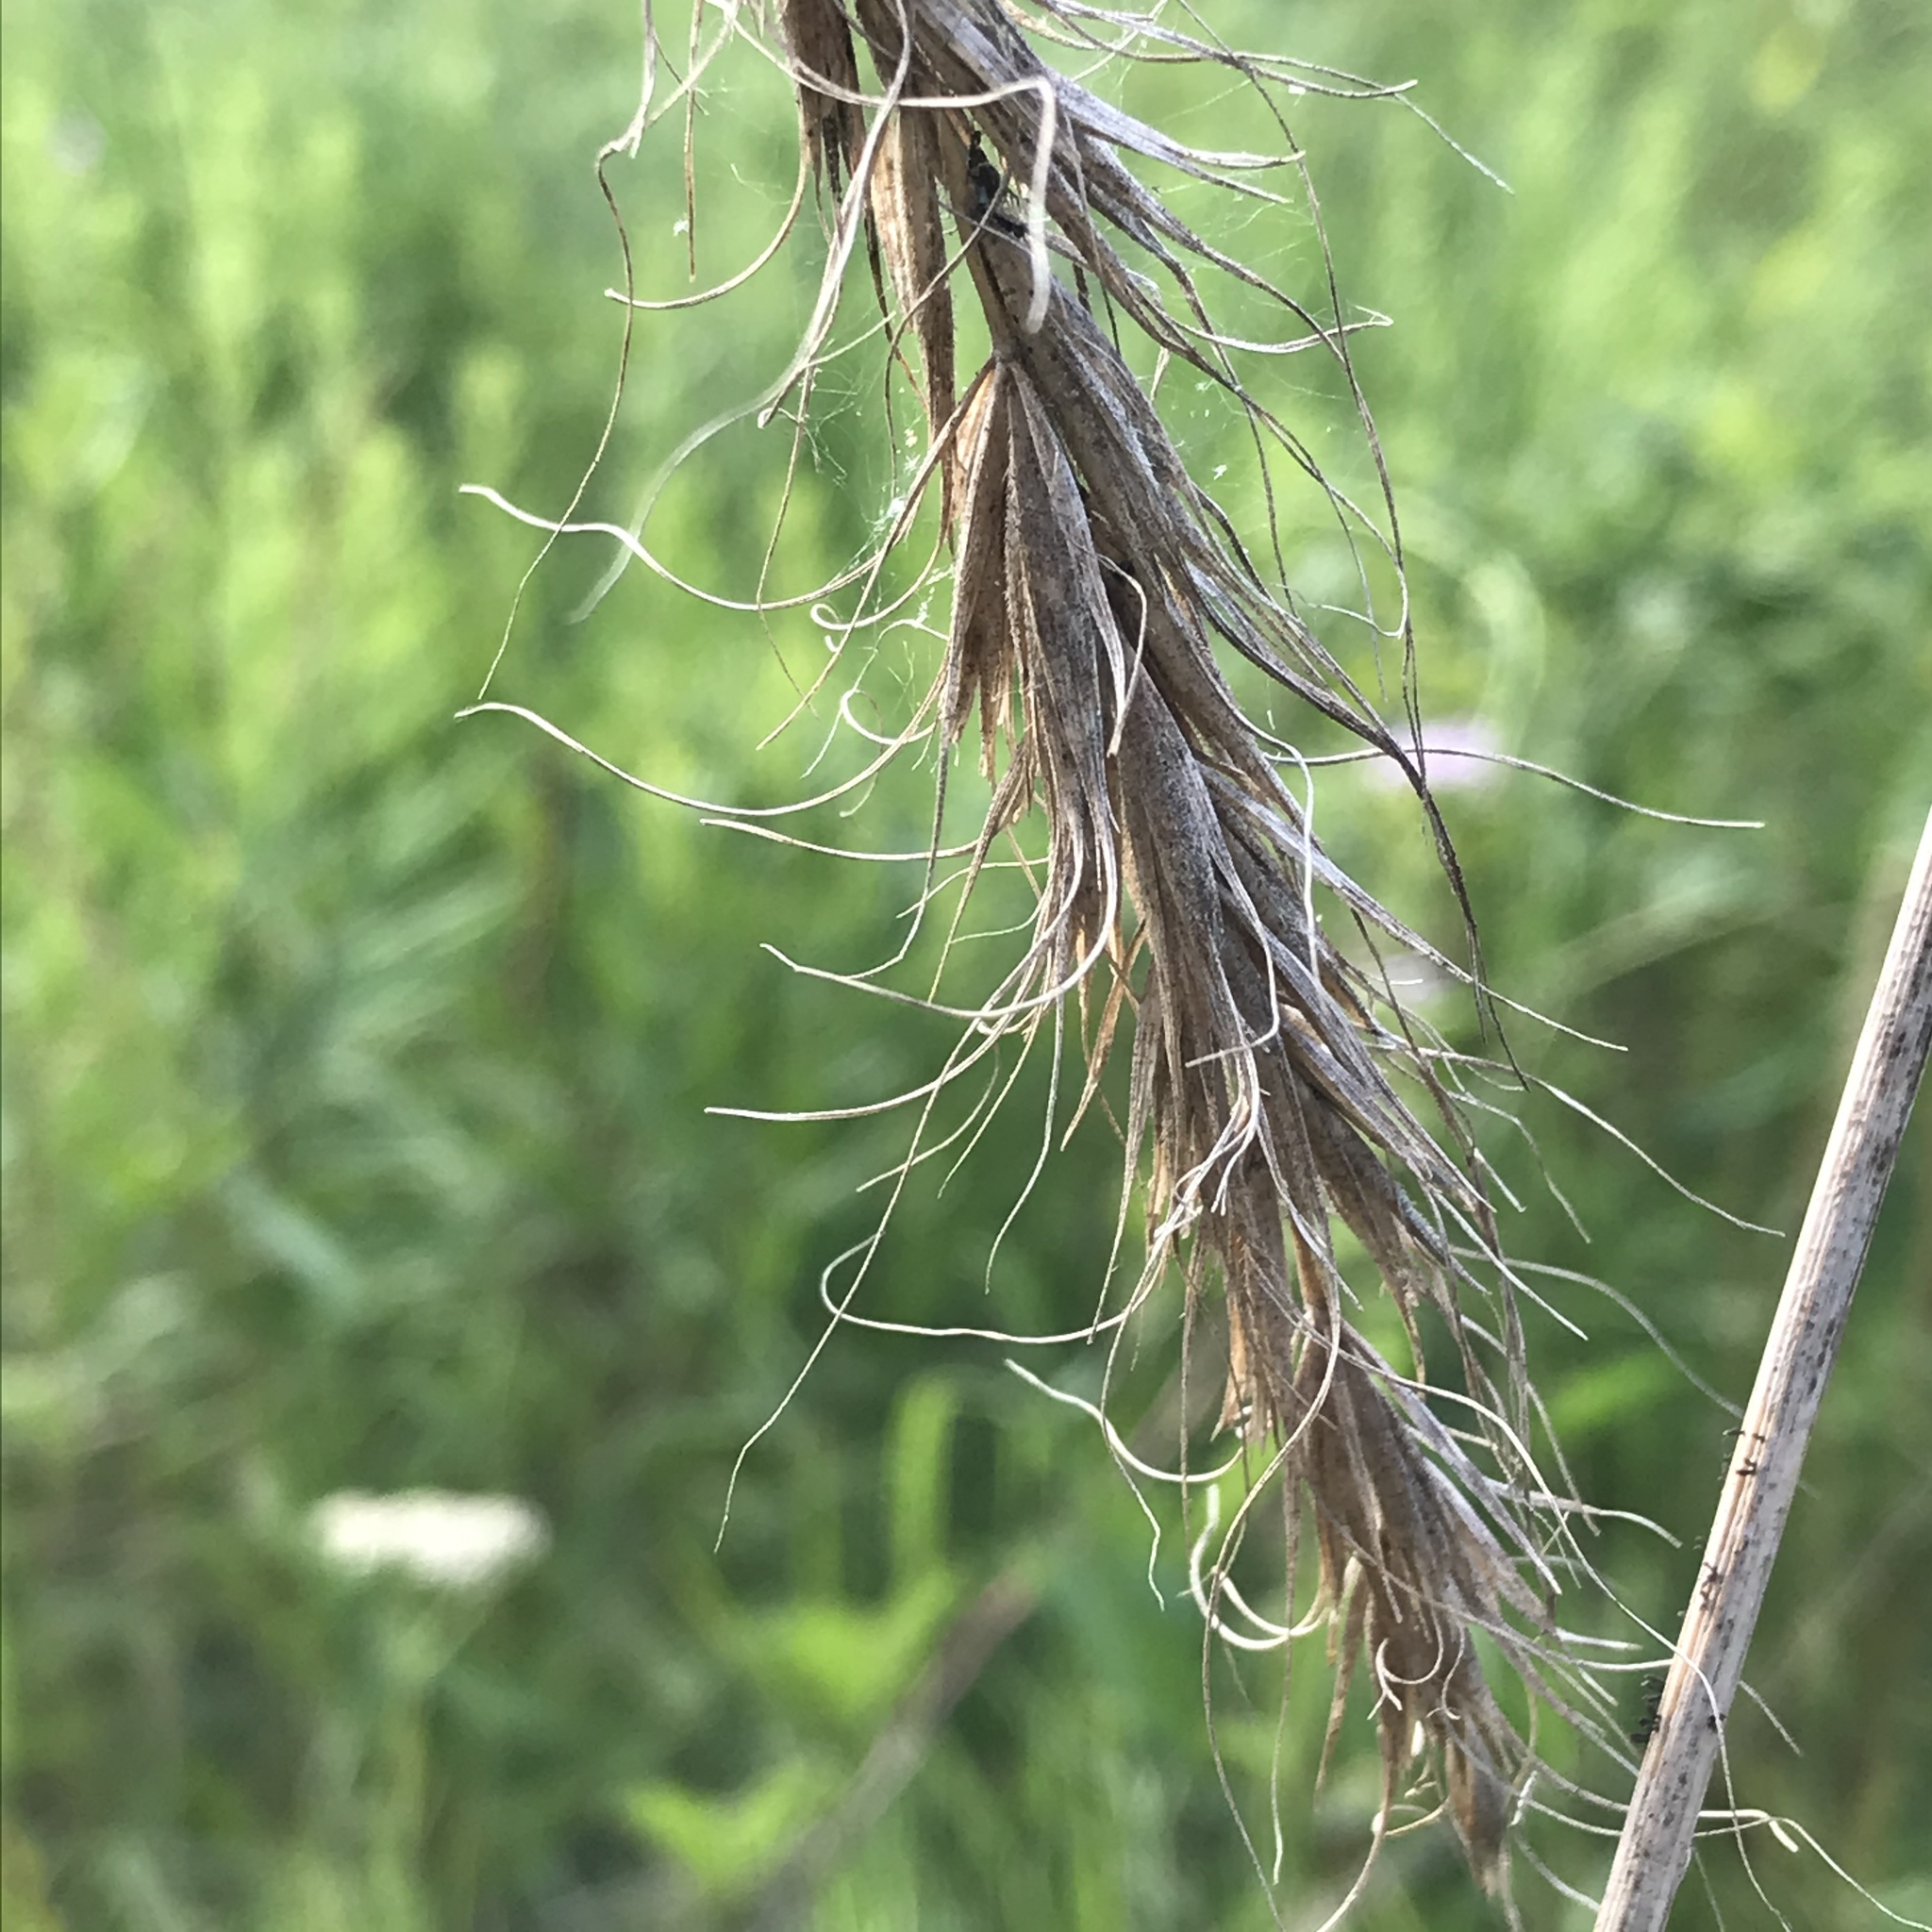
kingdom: Plantae
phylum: Tracheophyta
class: Liliopsida
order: Poales
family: Poaceae
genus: Elymus
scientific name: Elymus canadensis
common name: Canada wild rye
